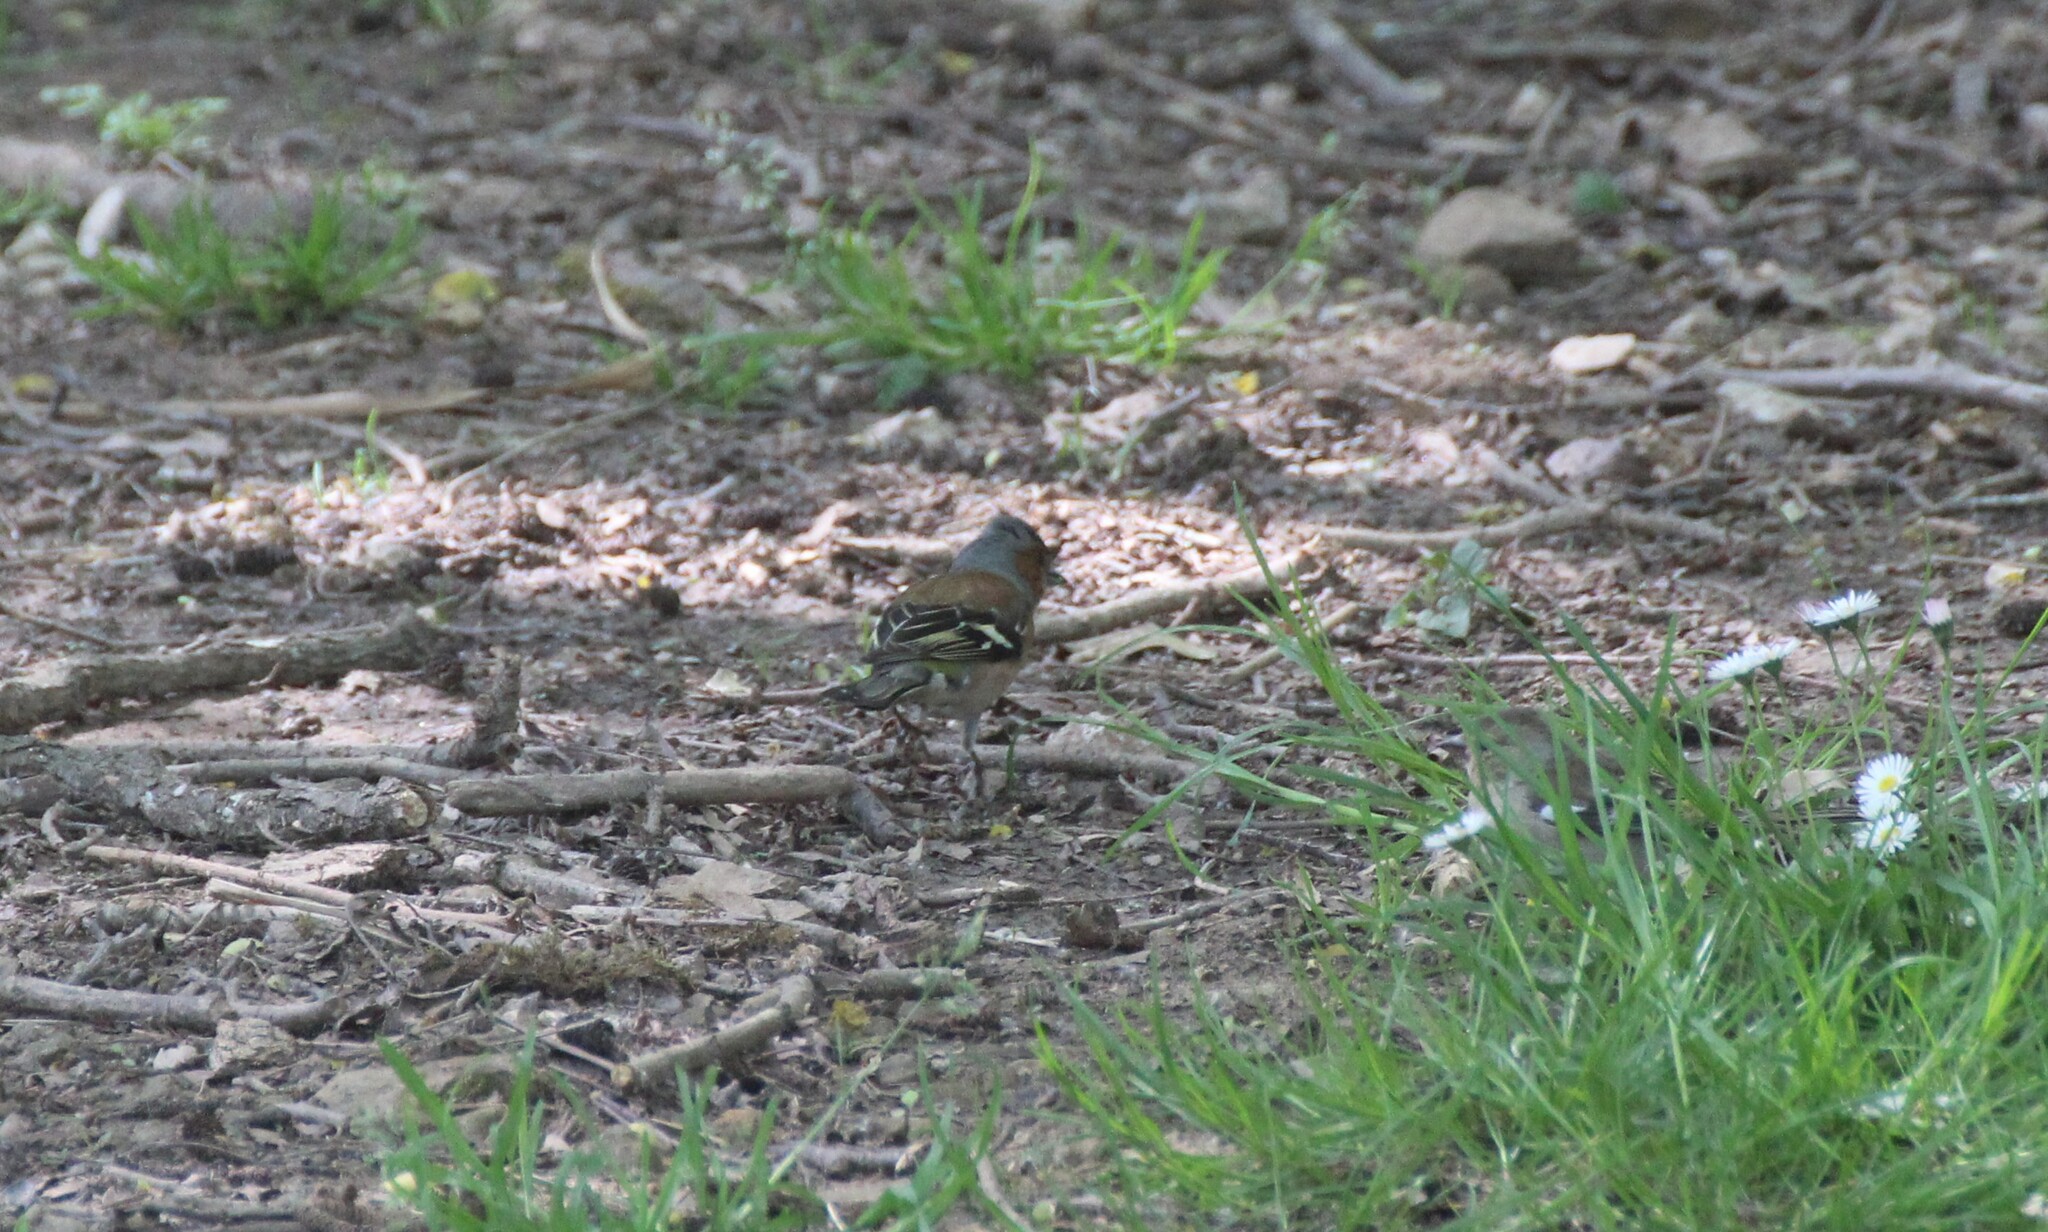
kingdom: Animalia
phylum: Chordata
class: Aves
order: Passeriformes
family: Fringillidae
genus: Fringilla
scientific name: Fringilla coelebs
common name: Common chaffinch
